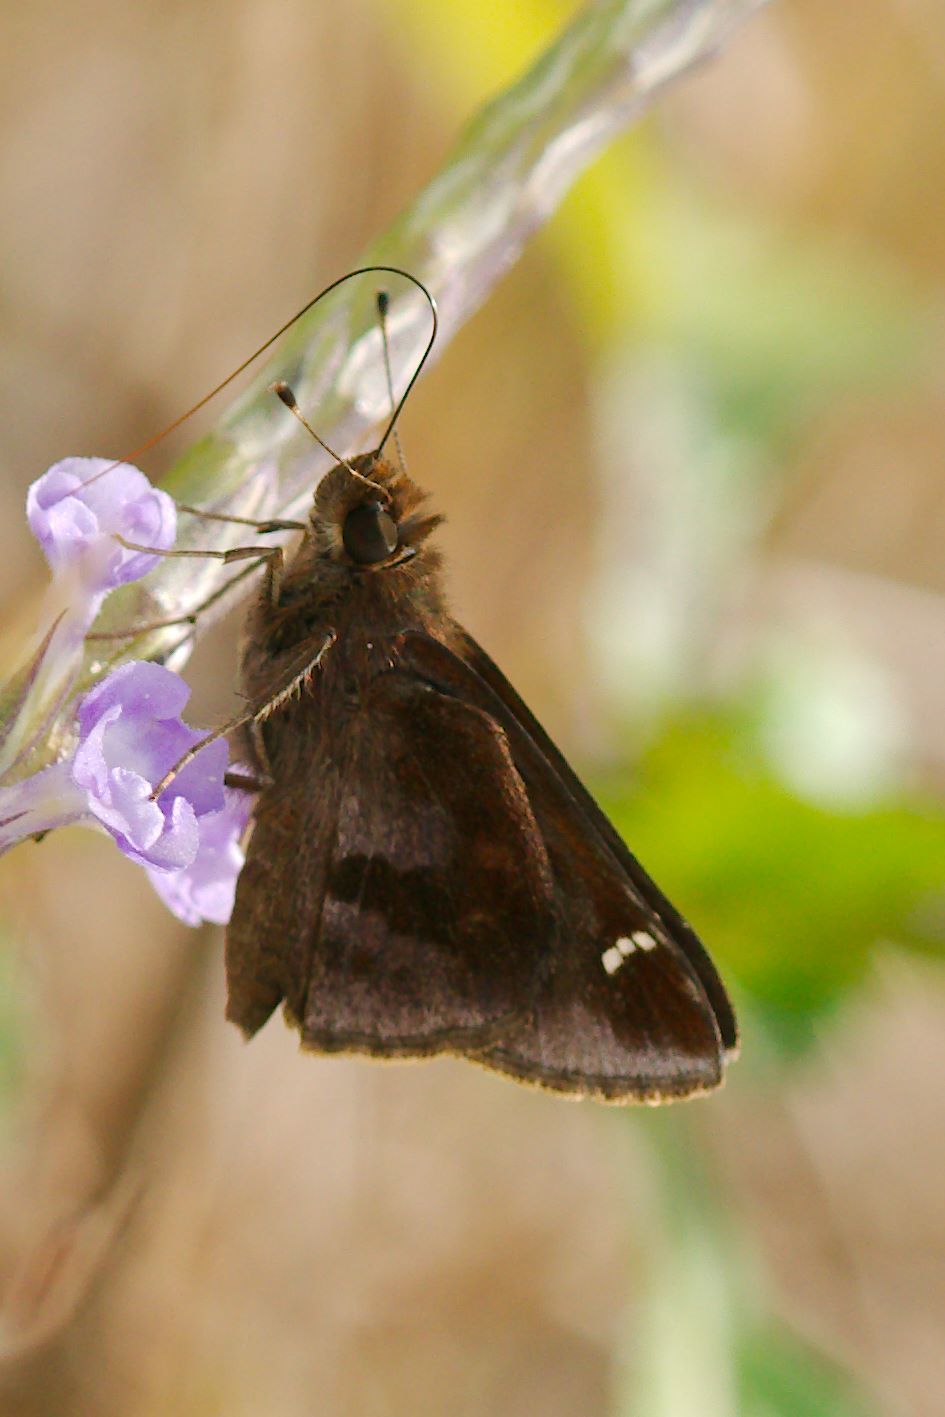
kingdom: Animalia
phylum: Arthropoda
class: Insecta
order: Lepidoptera
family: Hesperiidae
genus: Lerema
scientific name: Lerema accius
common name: Clouded skipper
